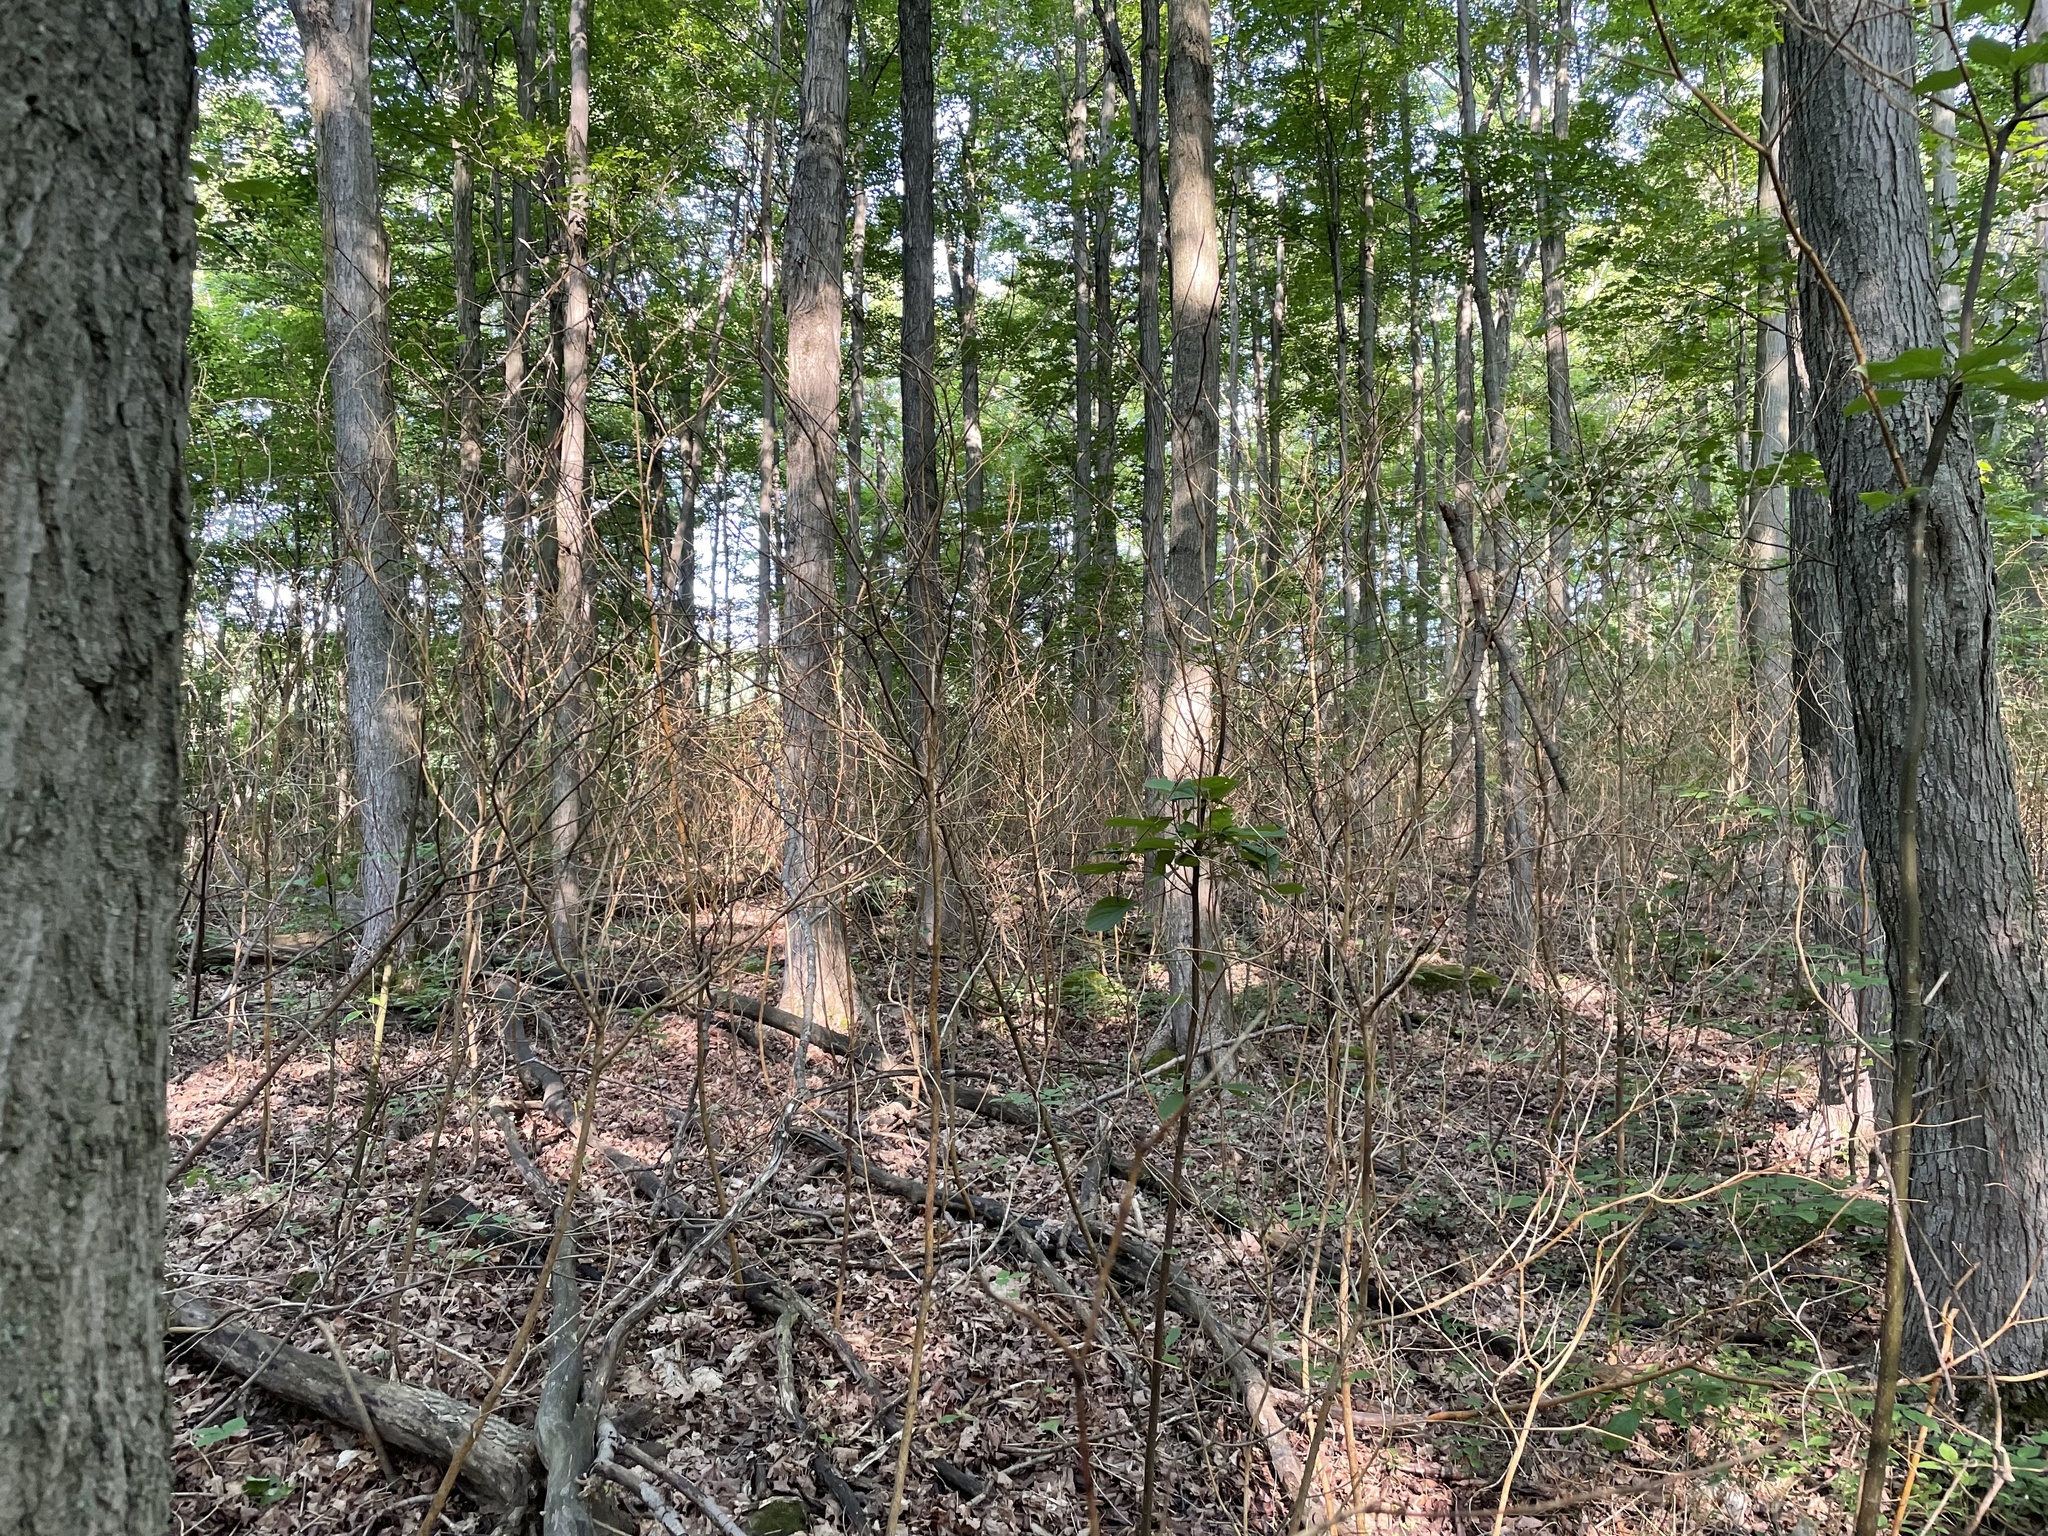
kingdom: Fungi
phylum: Ascomycota
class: Sordariomycetes
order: Diaporthales
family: Cryphonectriaceae
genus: Aurantioporthe
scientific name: Aurantioporthe corni
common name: Dogwood golden canker
